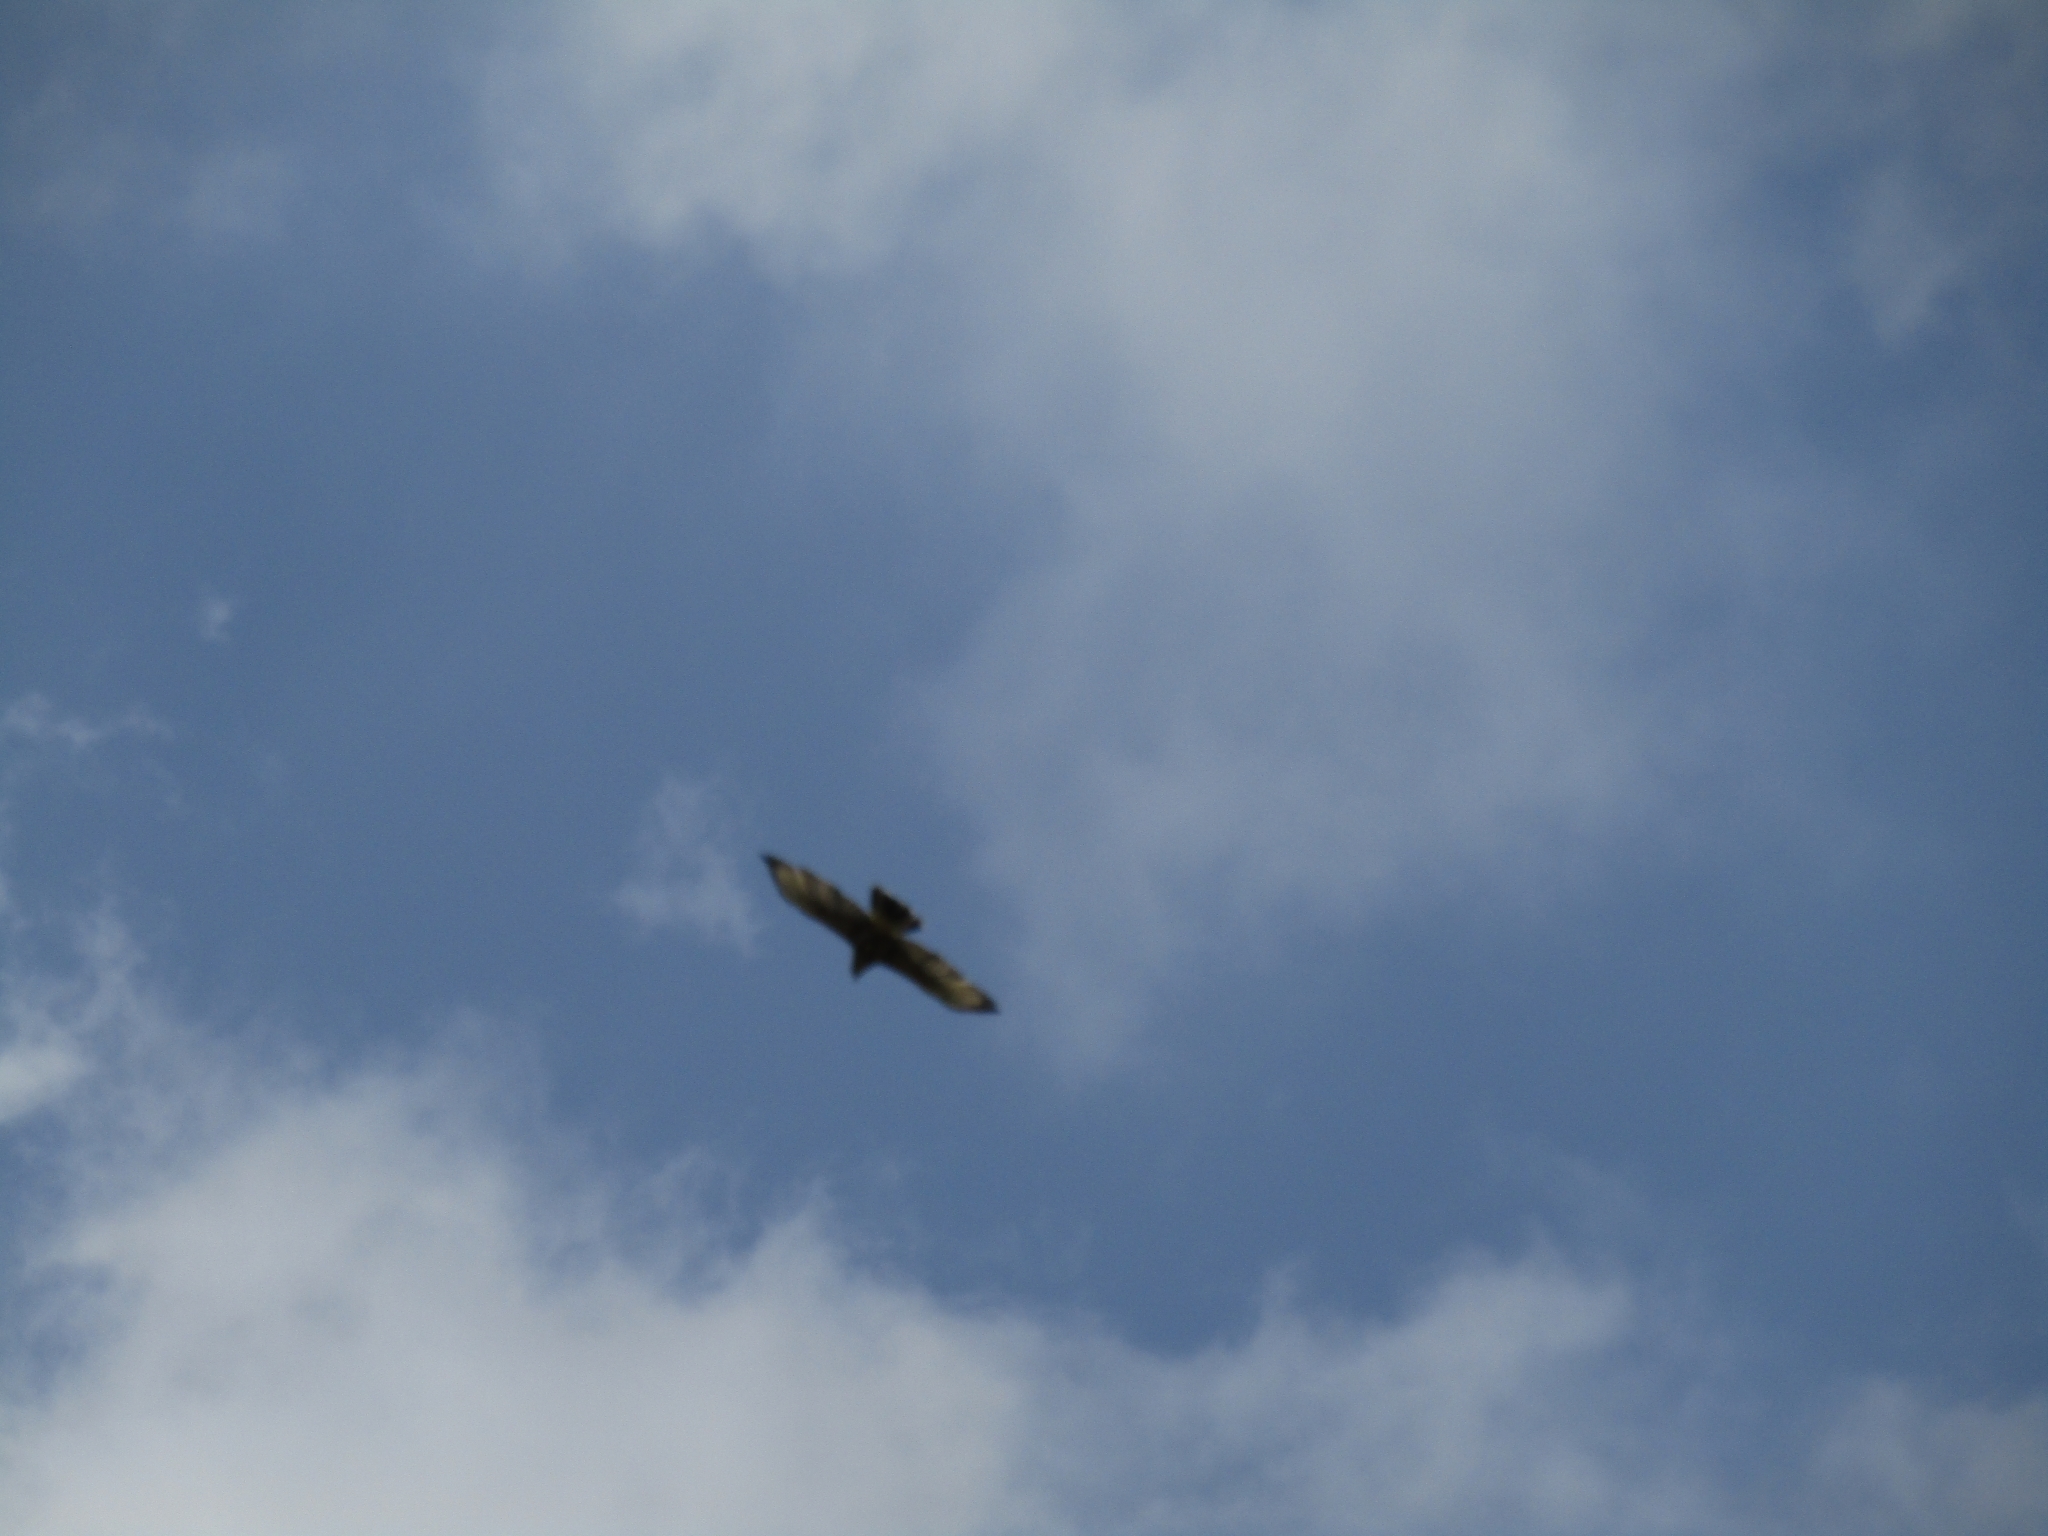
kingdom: Animalia
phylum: Chordata
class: Aves
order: Accipitriformes
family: Accipitridae
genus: Parabuteo
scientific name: Parabuteo unicinctus
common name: Harris's hawk
